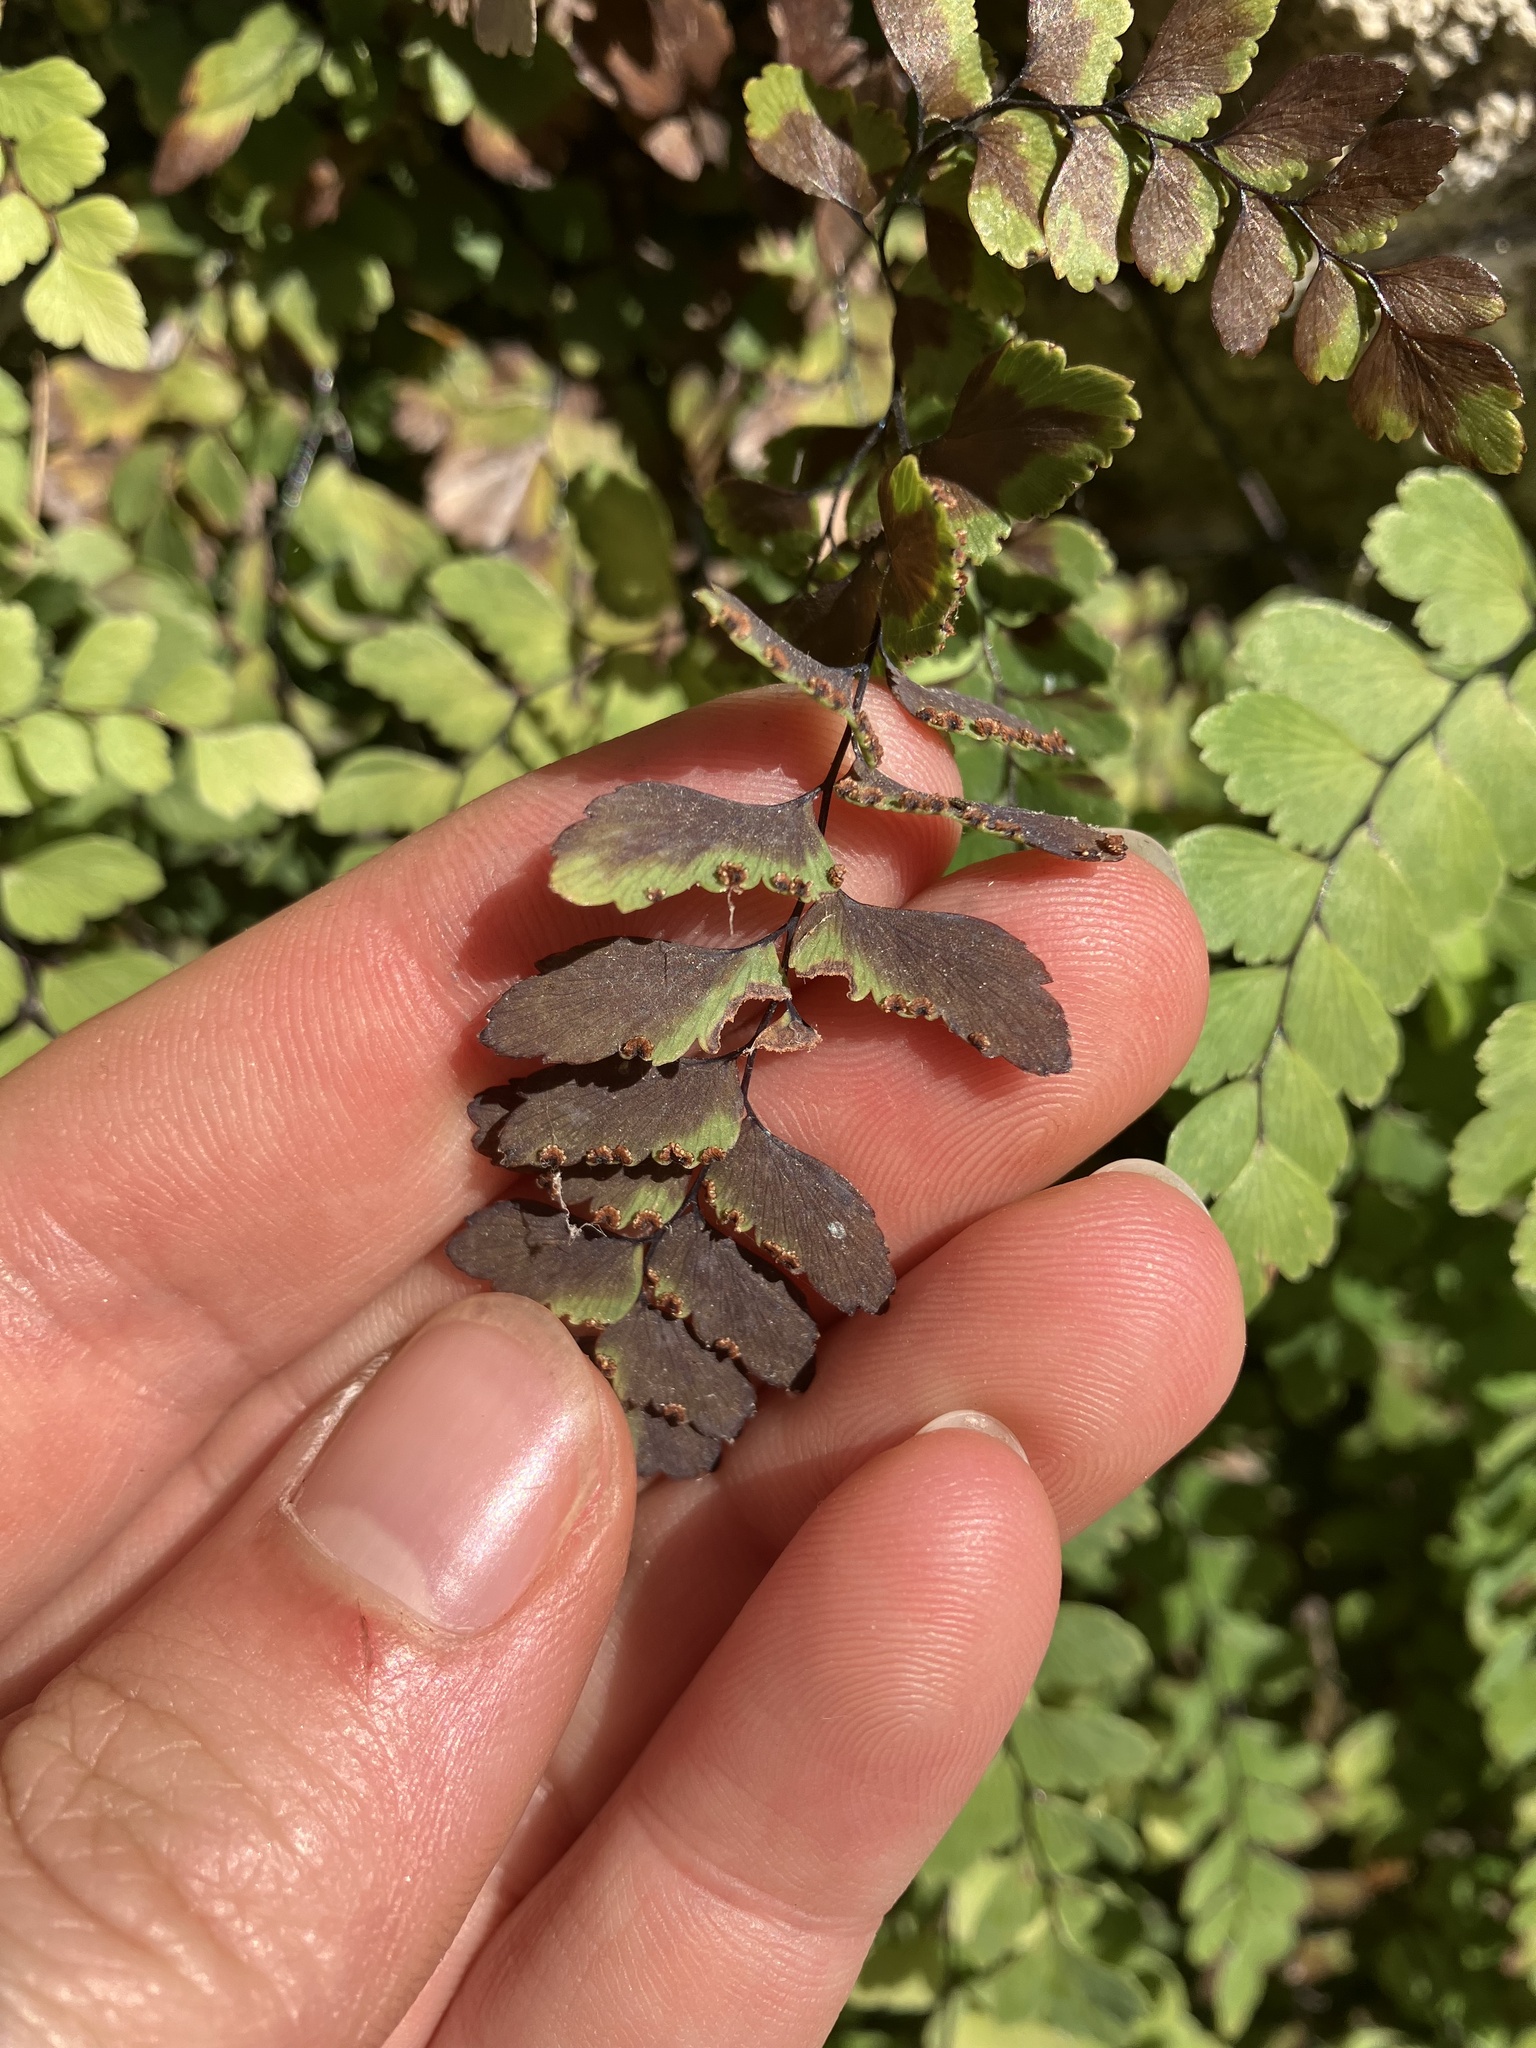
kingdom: Plantae
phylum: Tracheophyta
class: Polypodiopsida
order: Polypodiales
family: Pteridaceae
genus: Adiantum
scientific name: Adiantum cunninghamii
